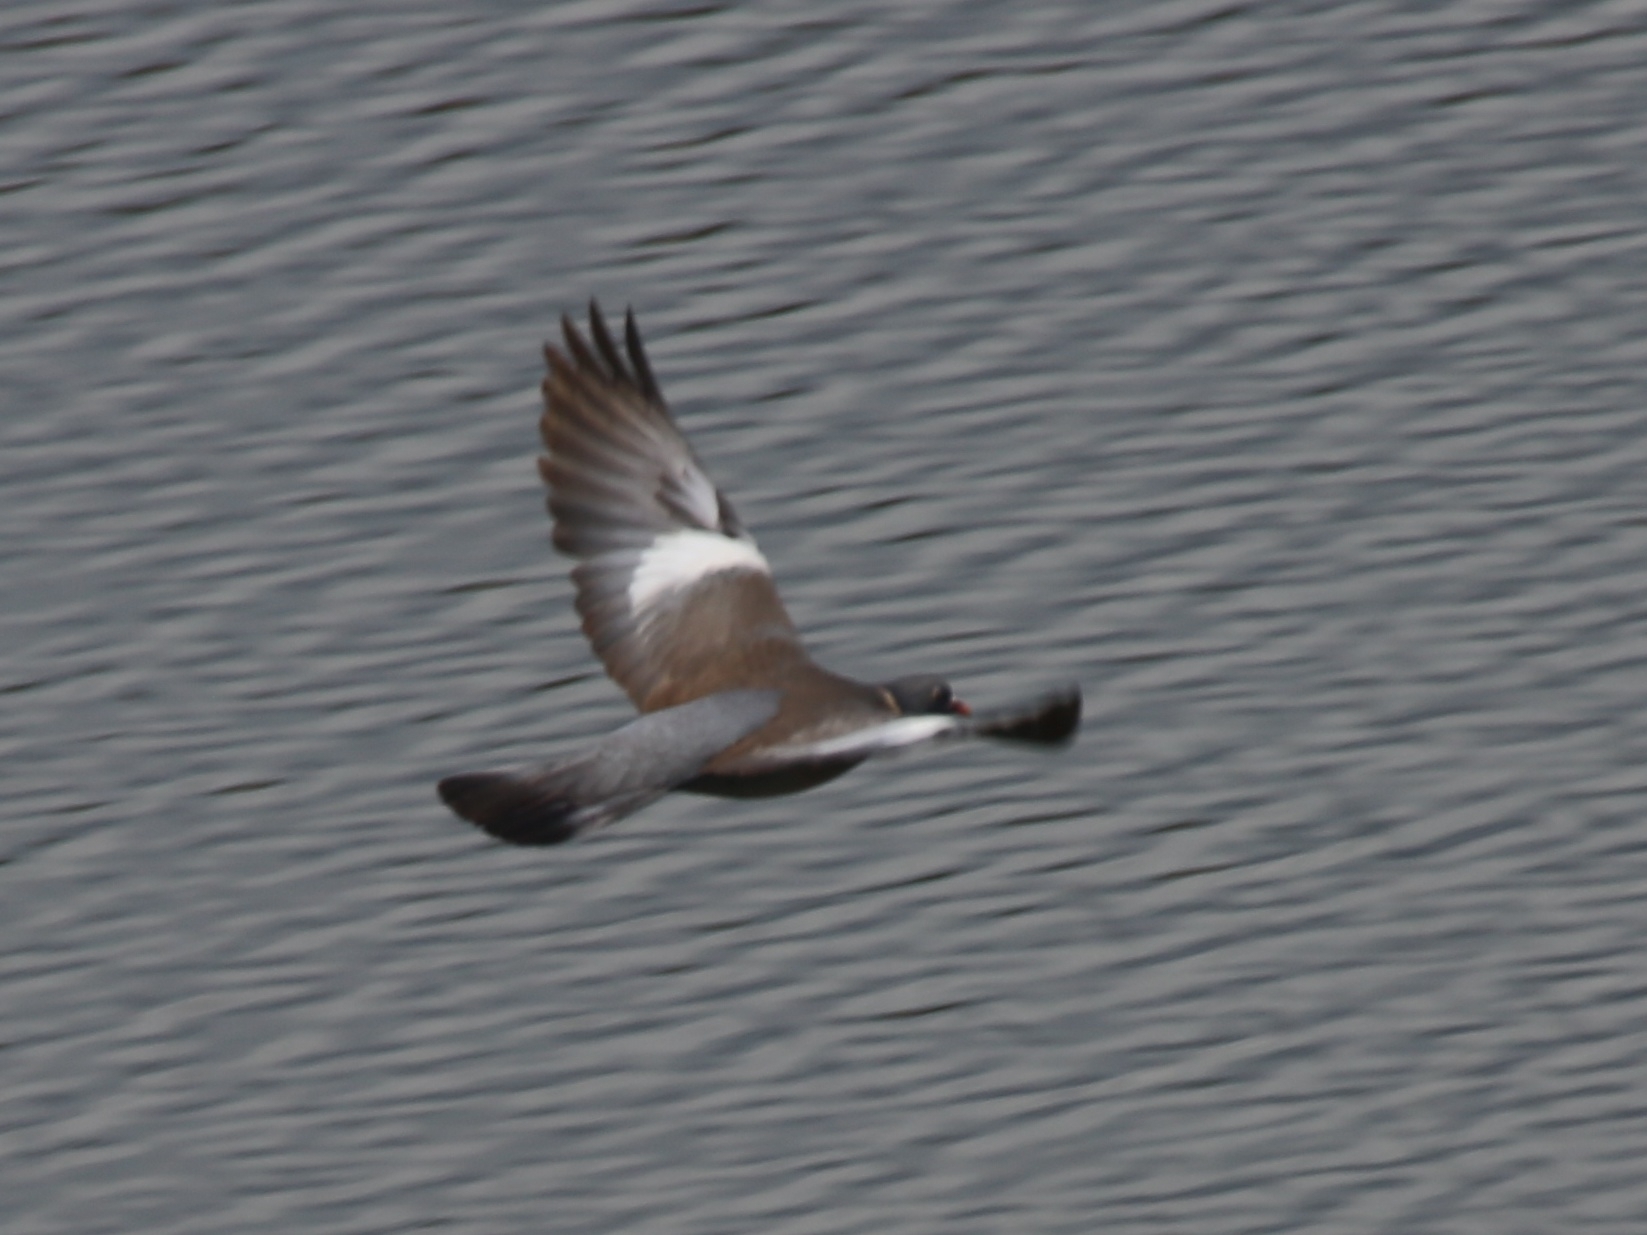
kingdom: Animalia
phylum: Chordata
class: Aves
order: Columbiformes
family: Columbidae
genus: Columba
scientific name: Columba palumbus
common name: Common wood pigeon
